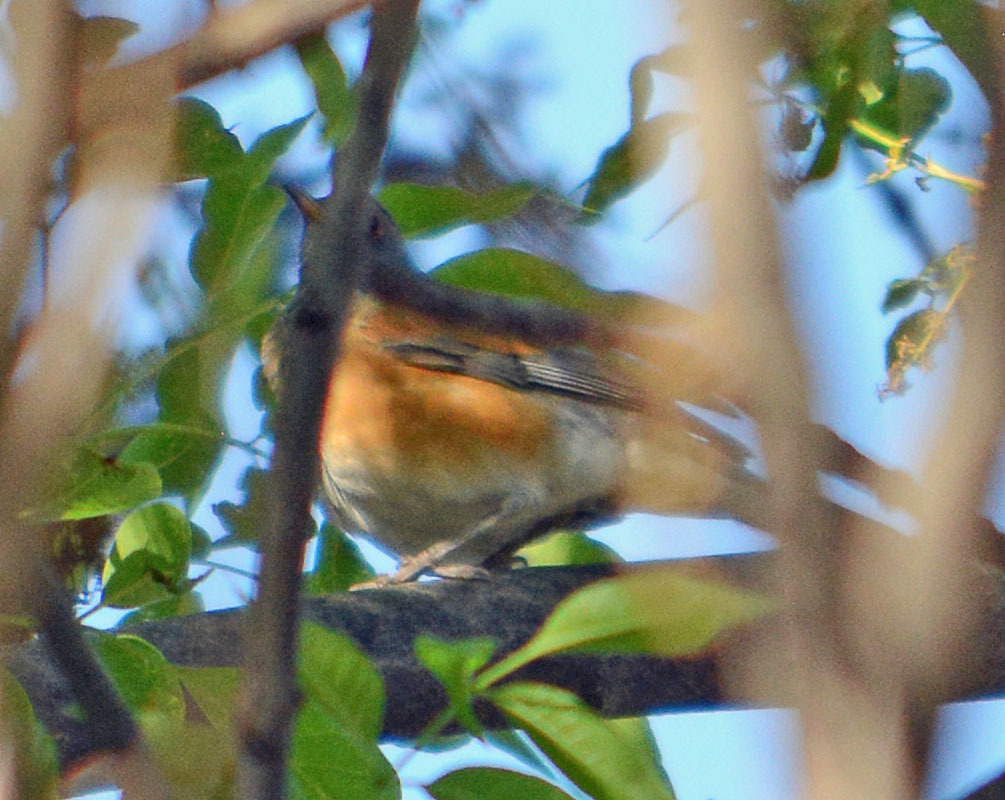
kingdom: Animalia
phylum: Chordata
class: Aves
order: Passeriformes
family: Turdidae
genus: Turdus
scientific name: Turdus rufopalliatus
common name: Rufous-backed robin
